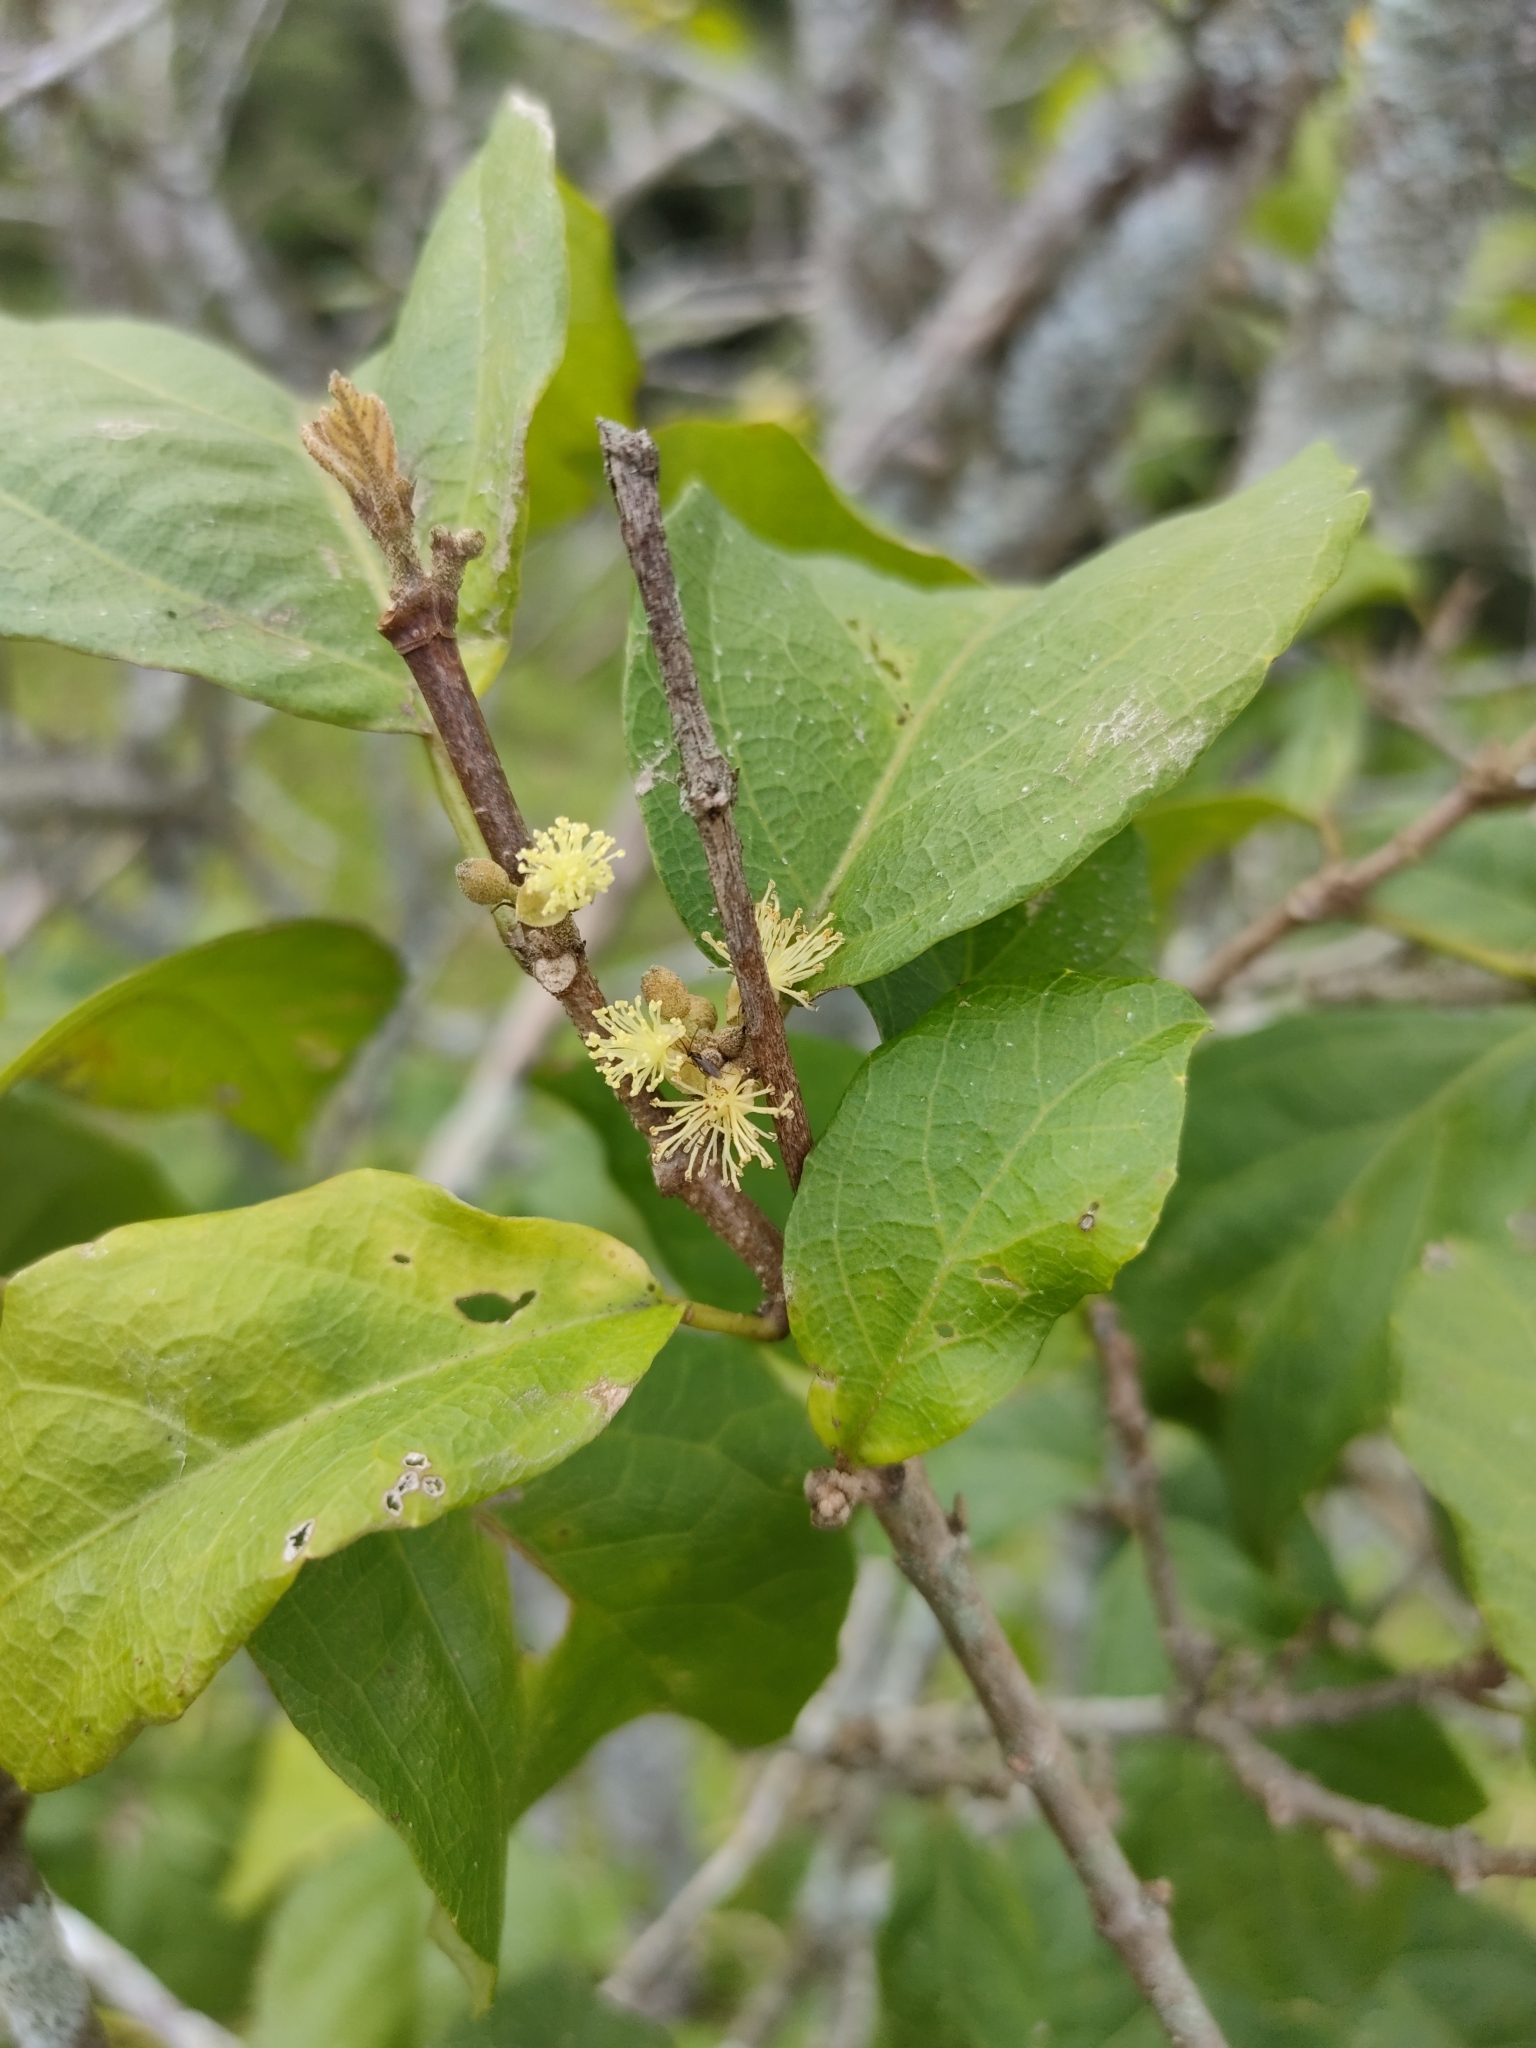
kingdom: Plantae
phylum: Tracheophyta
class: Magnoliopsida
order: Malpighiales
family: Euphorbiaceae
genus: Mallotus
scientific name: Mallotus claoxyloides
